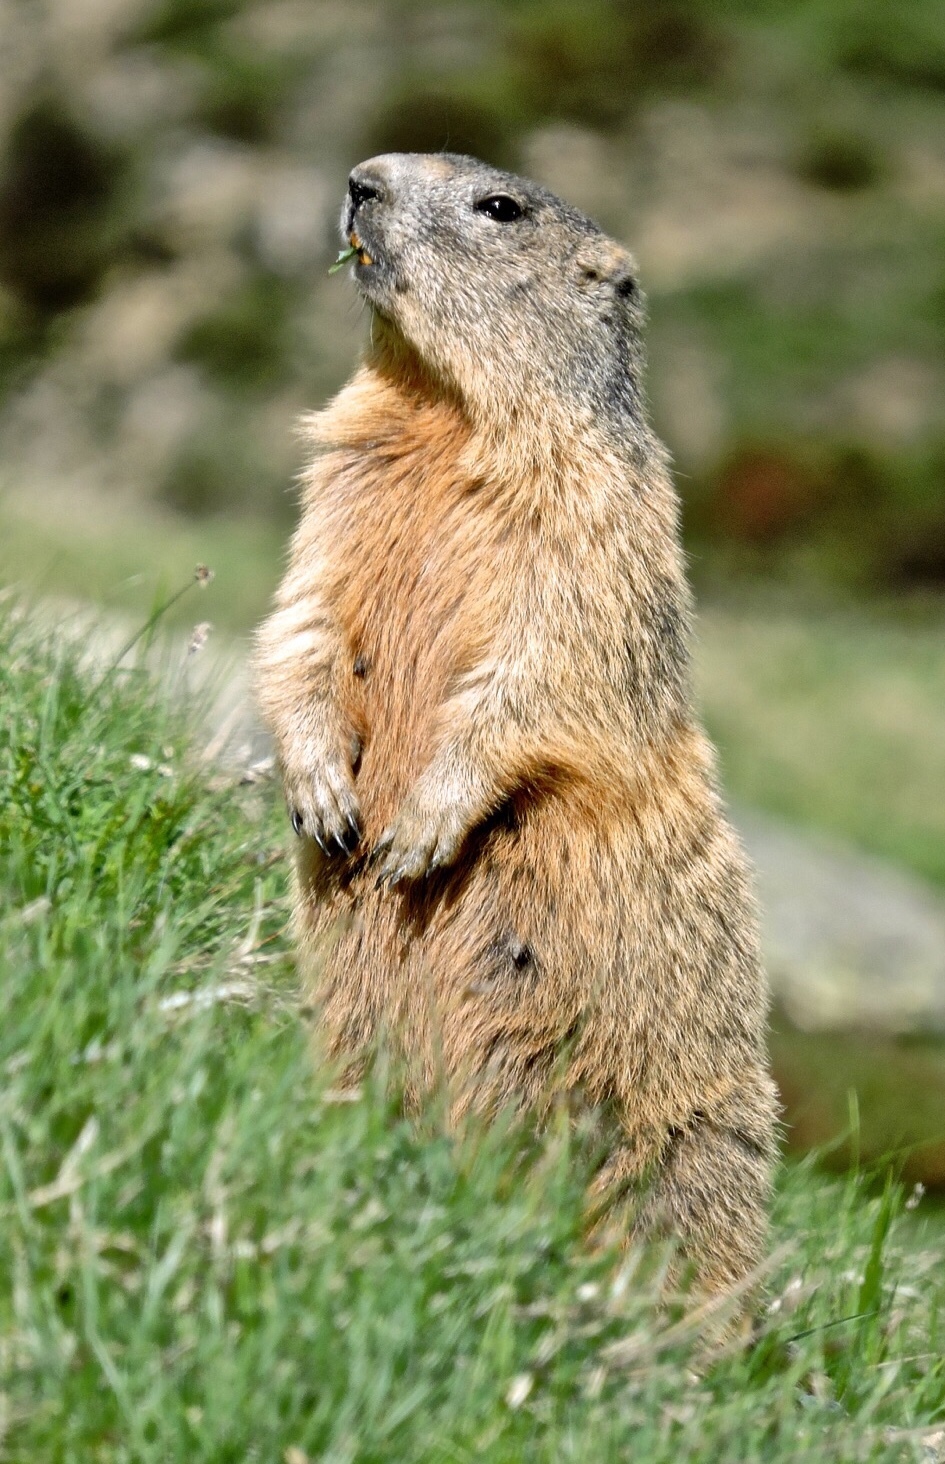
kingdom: Animalia
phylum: Chordata
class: Mammalia
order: Rodentia
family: Sciuridae
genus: Marmota
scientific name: Marmota marmota
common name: Alpine marmot
